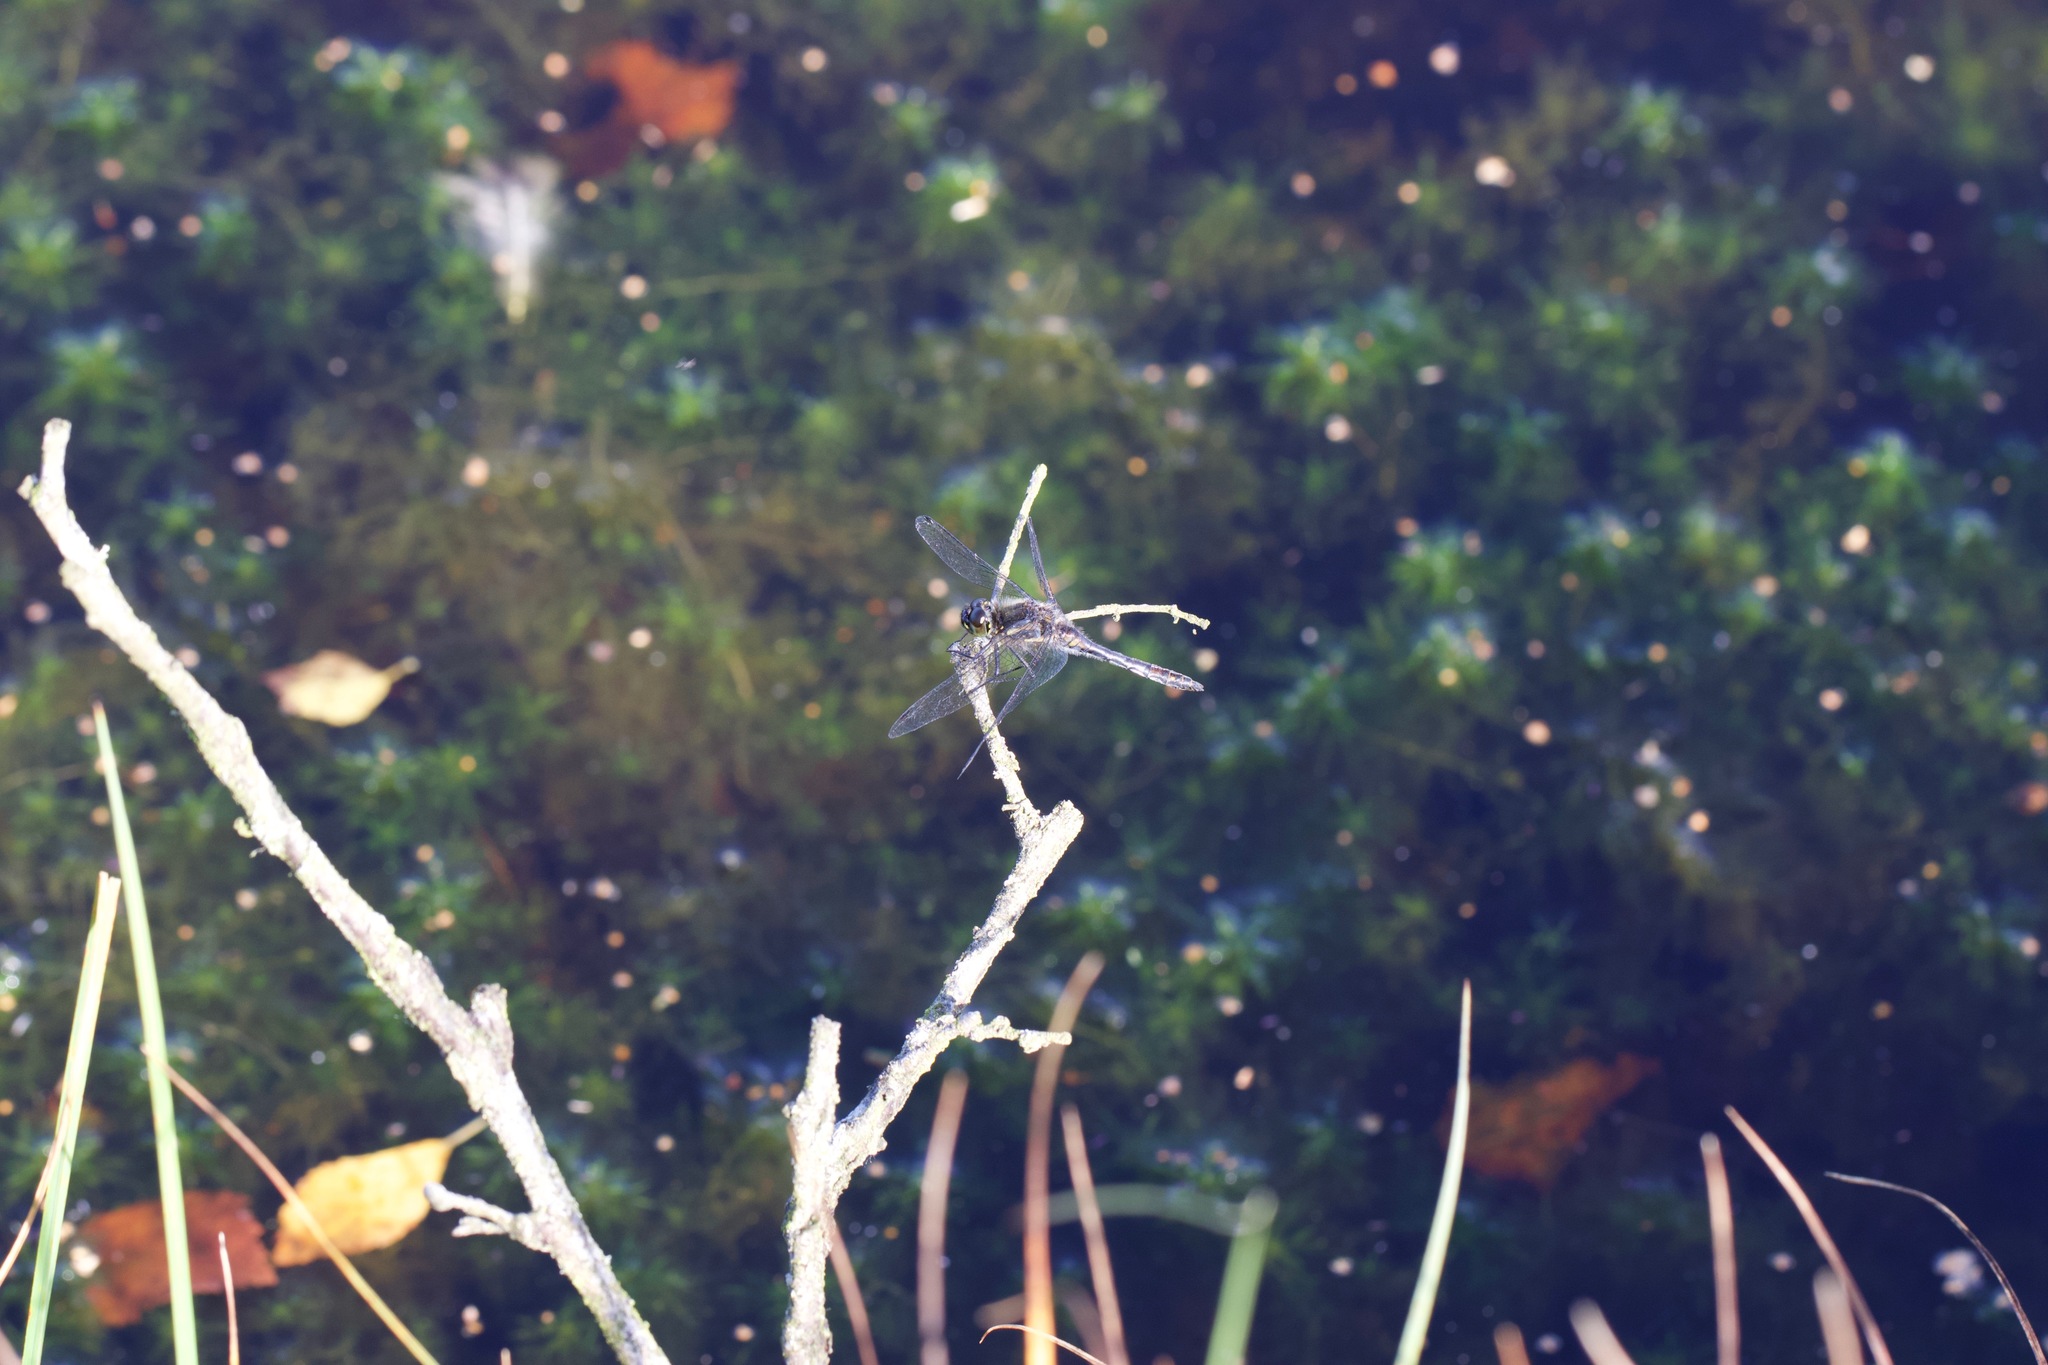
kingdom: Animalia
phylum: Arthropoda
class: Insecta
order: Odonata
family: Libellulidae
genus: Sympetrum
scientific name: Sympetrum danae
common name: Black darter
